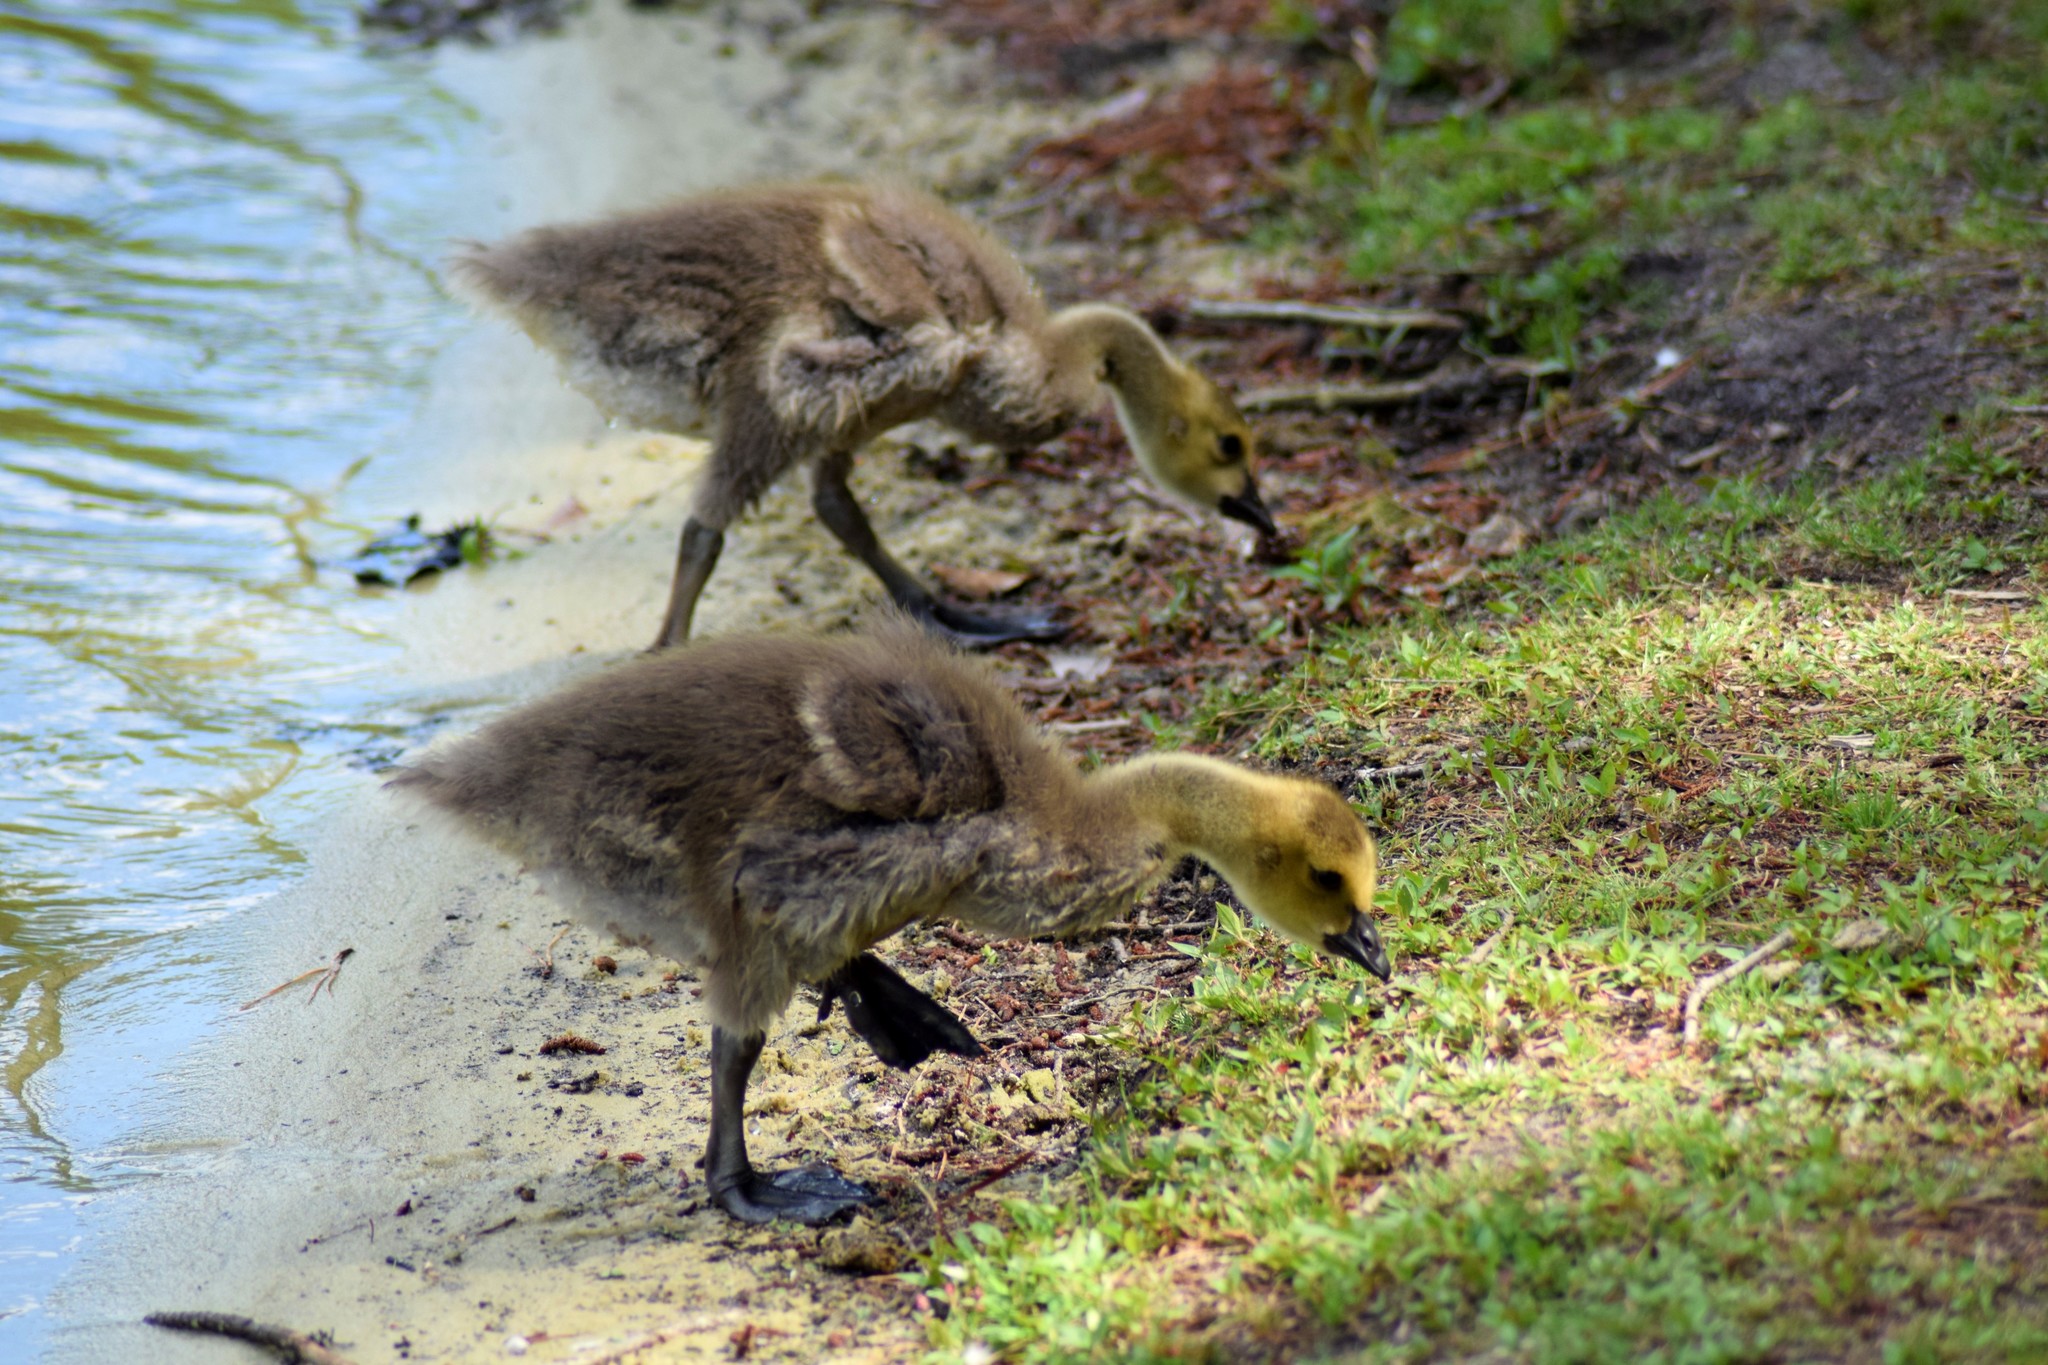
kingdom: Animalia
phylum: Chordata
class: Aves
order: Anseriformes
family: Anatidae
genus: Branta
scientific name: Branta canadensis
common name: Canada goose
